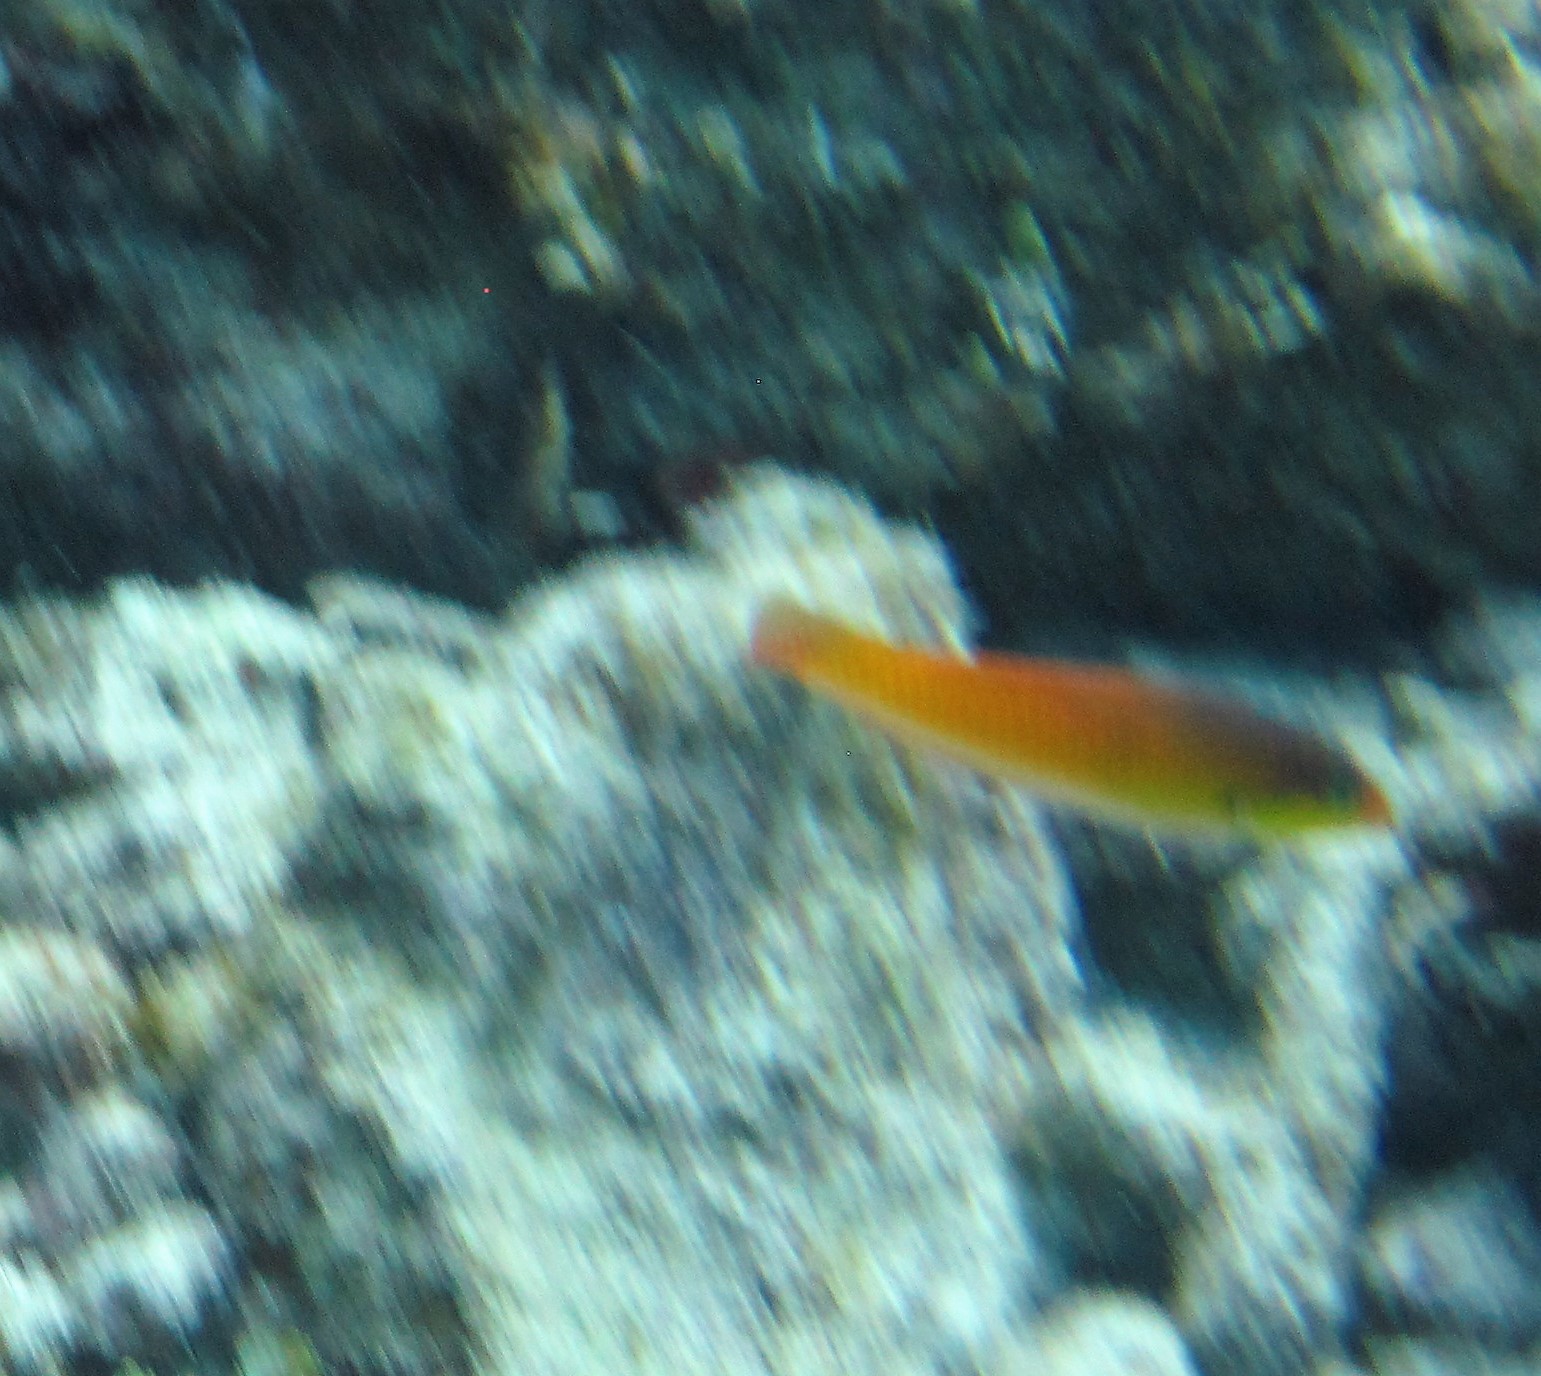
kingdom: Animalia
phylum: Chordata
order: Perciformes
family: Labridae
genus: Halichoeres
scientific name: Halichoeres garnoti
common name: Yellowhead wrasse
